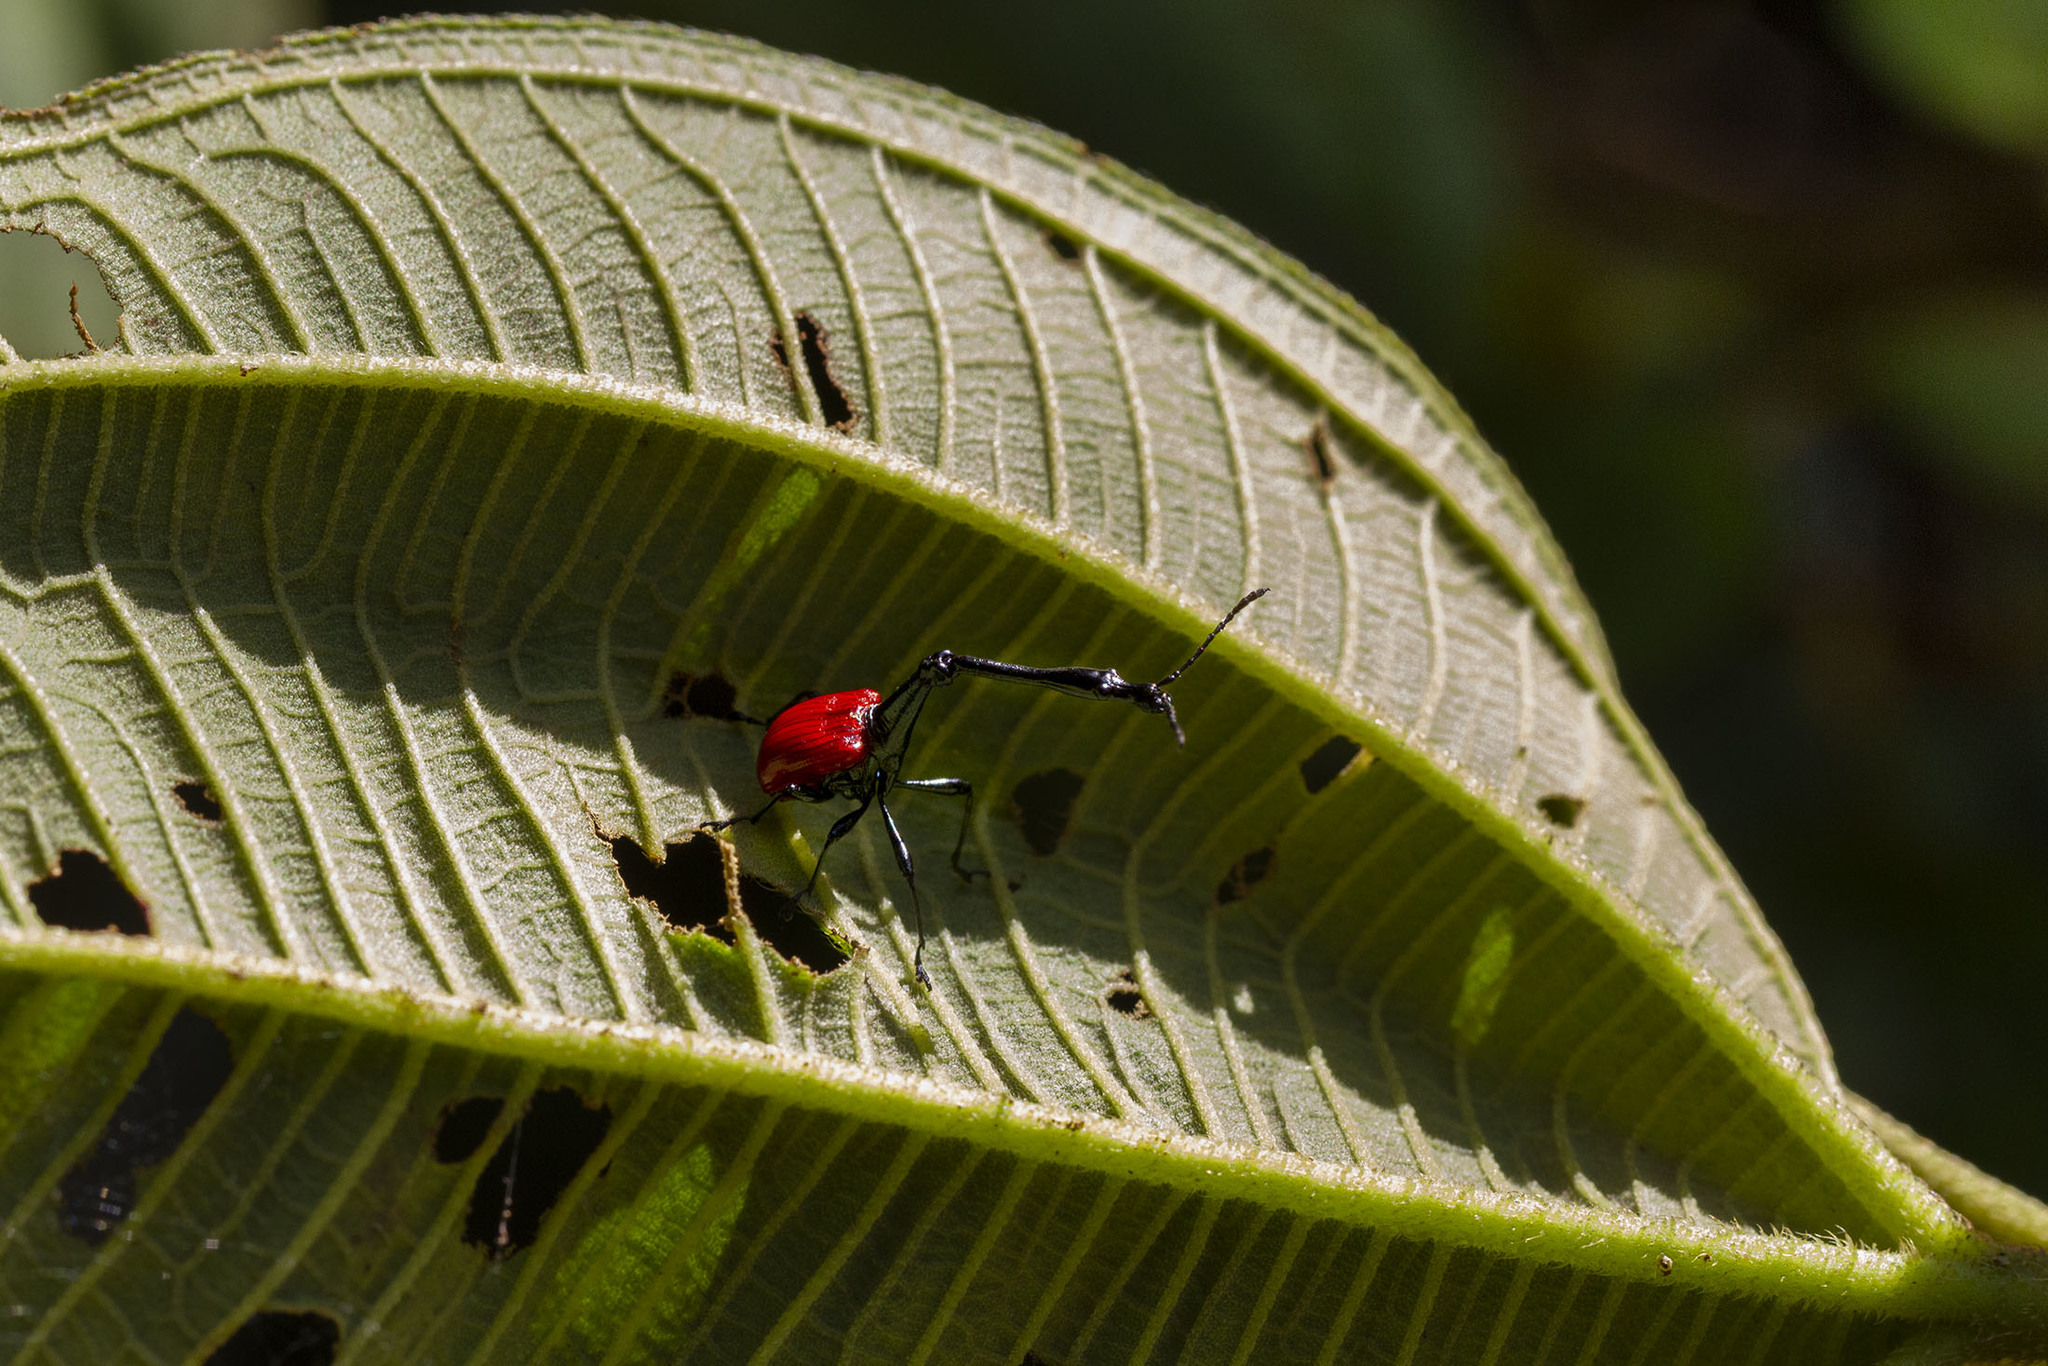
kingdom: Animalia
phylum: Arthropoda
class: Insecta
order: Coleoptera
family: Attelabidae
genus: Trachelophorus
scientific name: Trachelophorus giraffa
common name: Giraffe weevil
